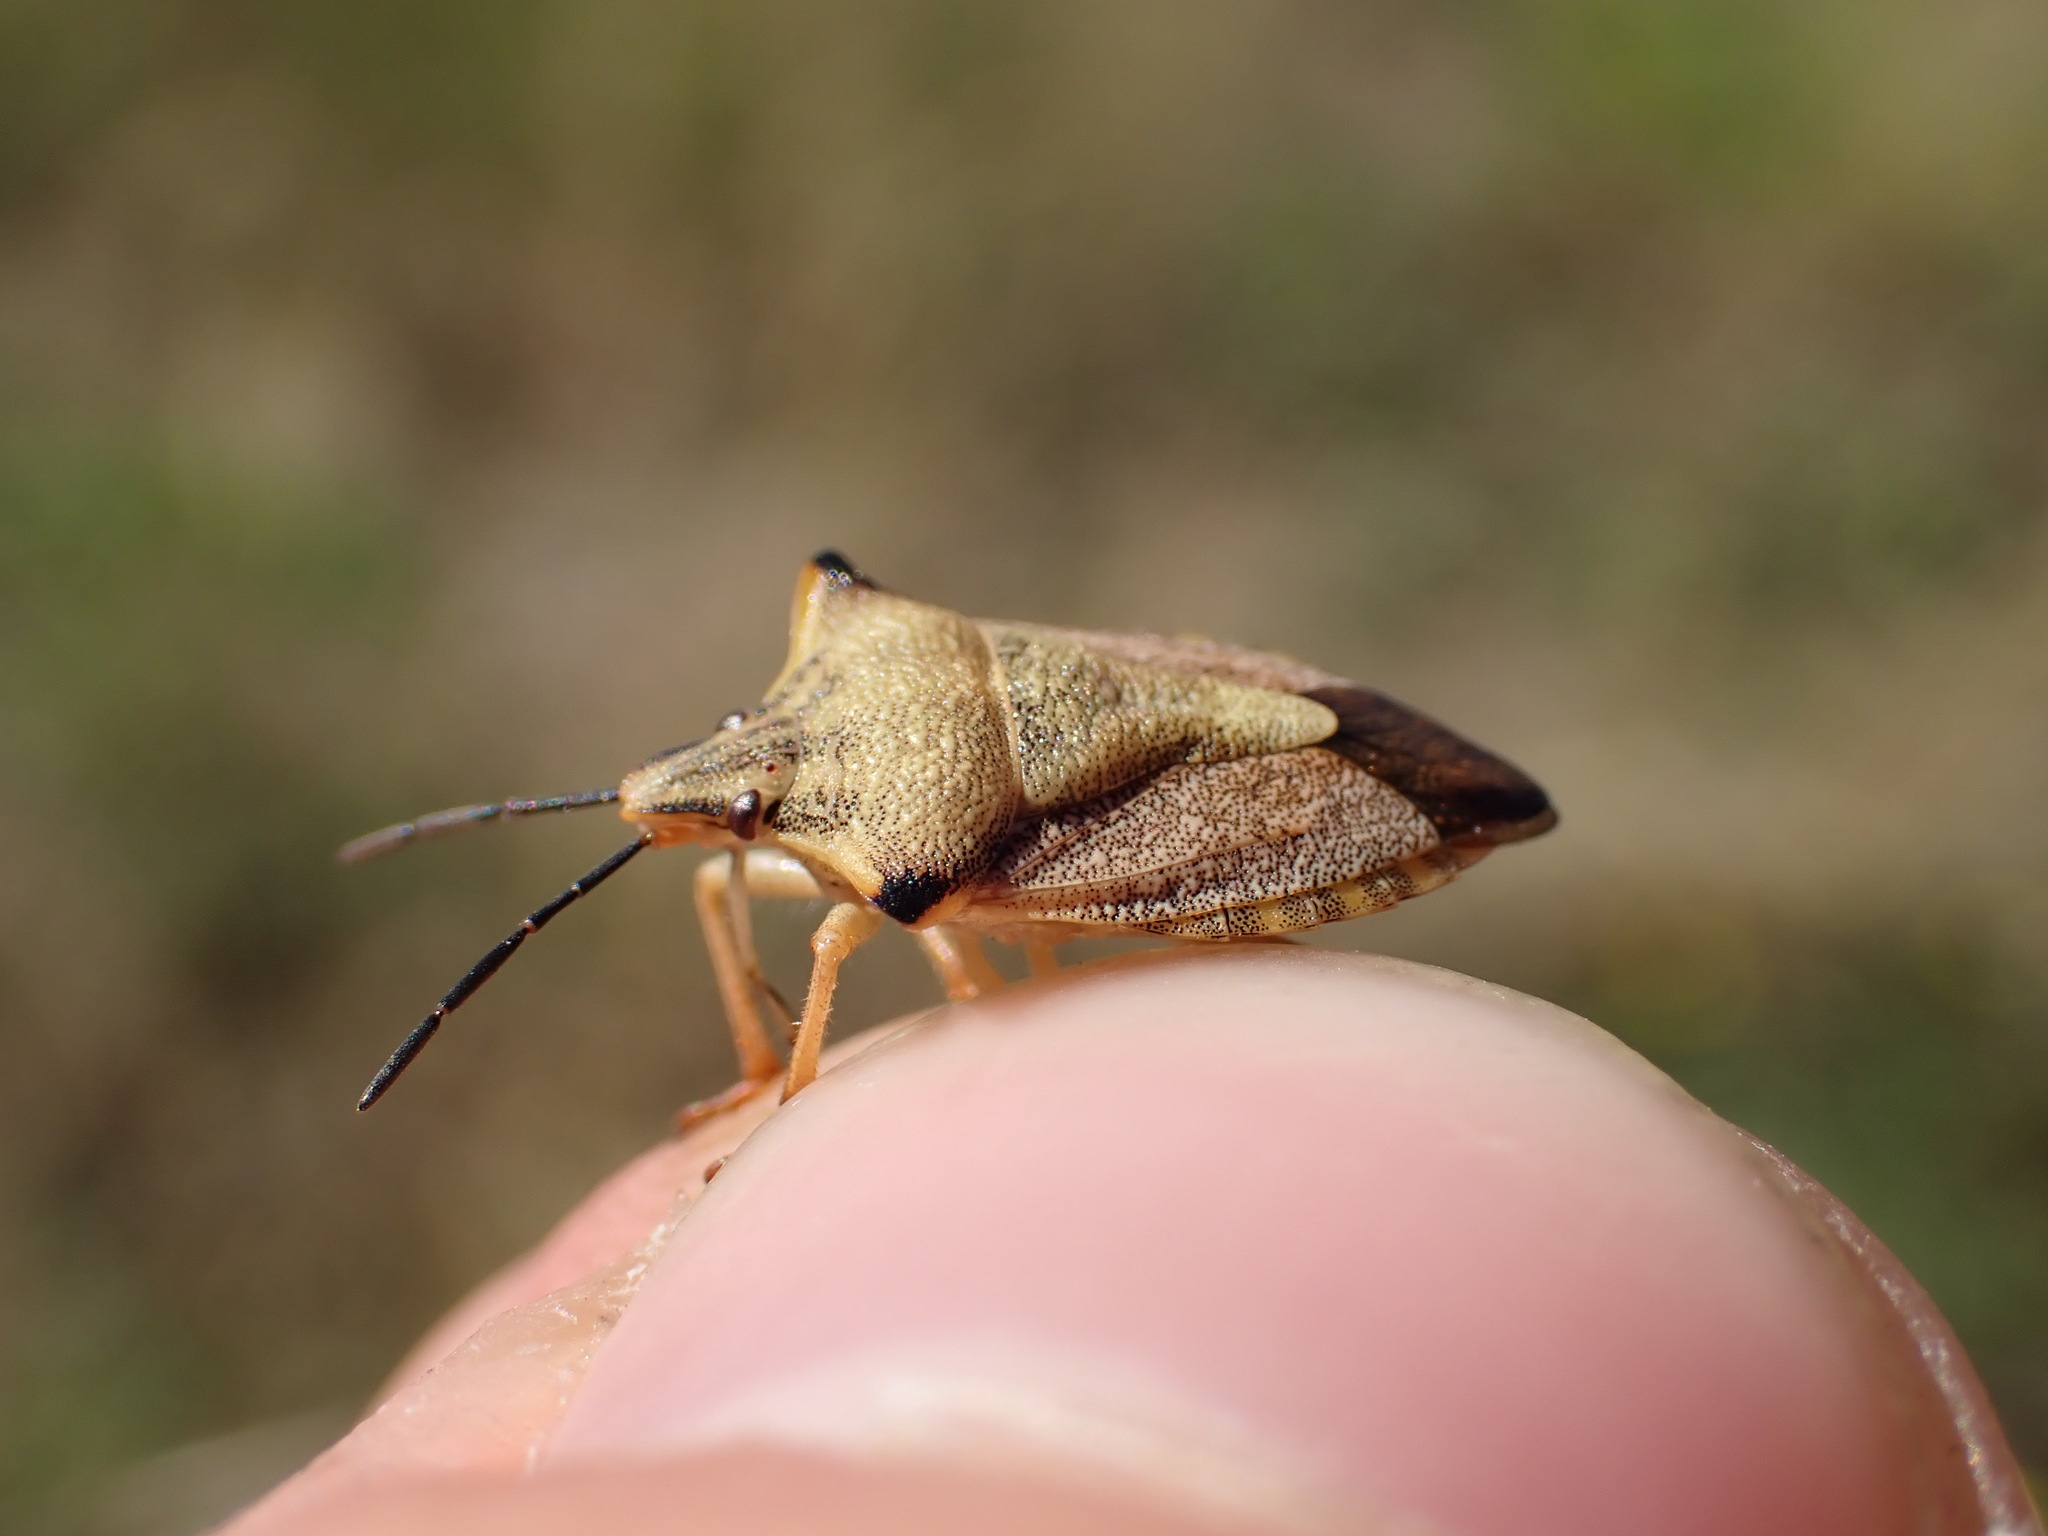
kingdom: Animalia
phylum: Arthropoda
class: Insecta
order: Hemiptera
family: Pentatomidae
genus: Carpocoris
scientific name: Carpocoris mediterraneus
